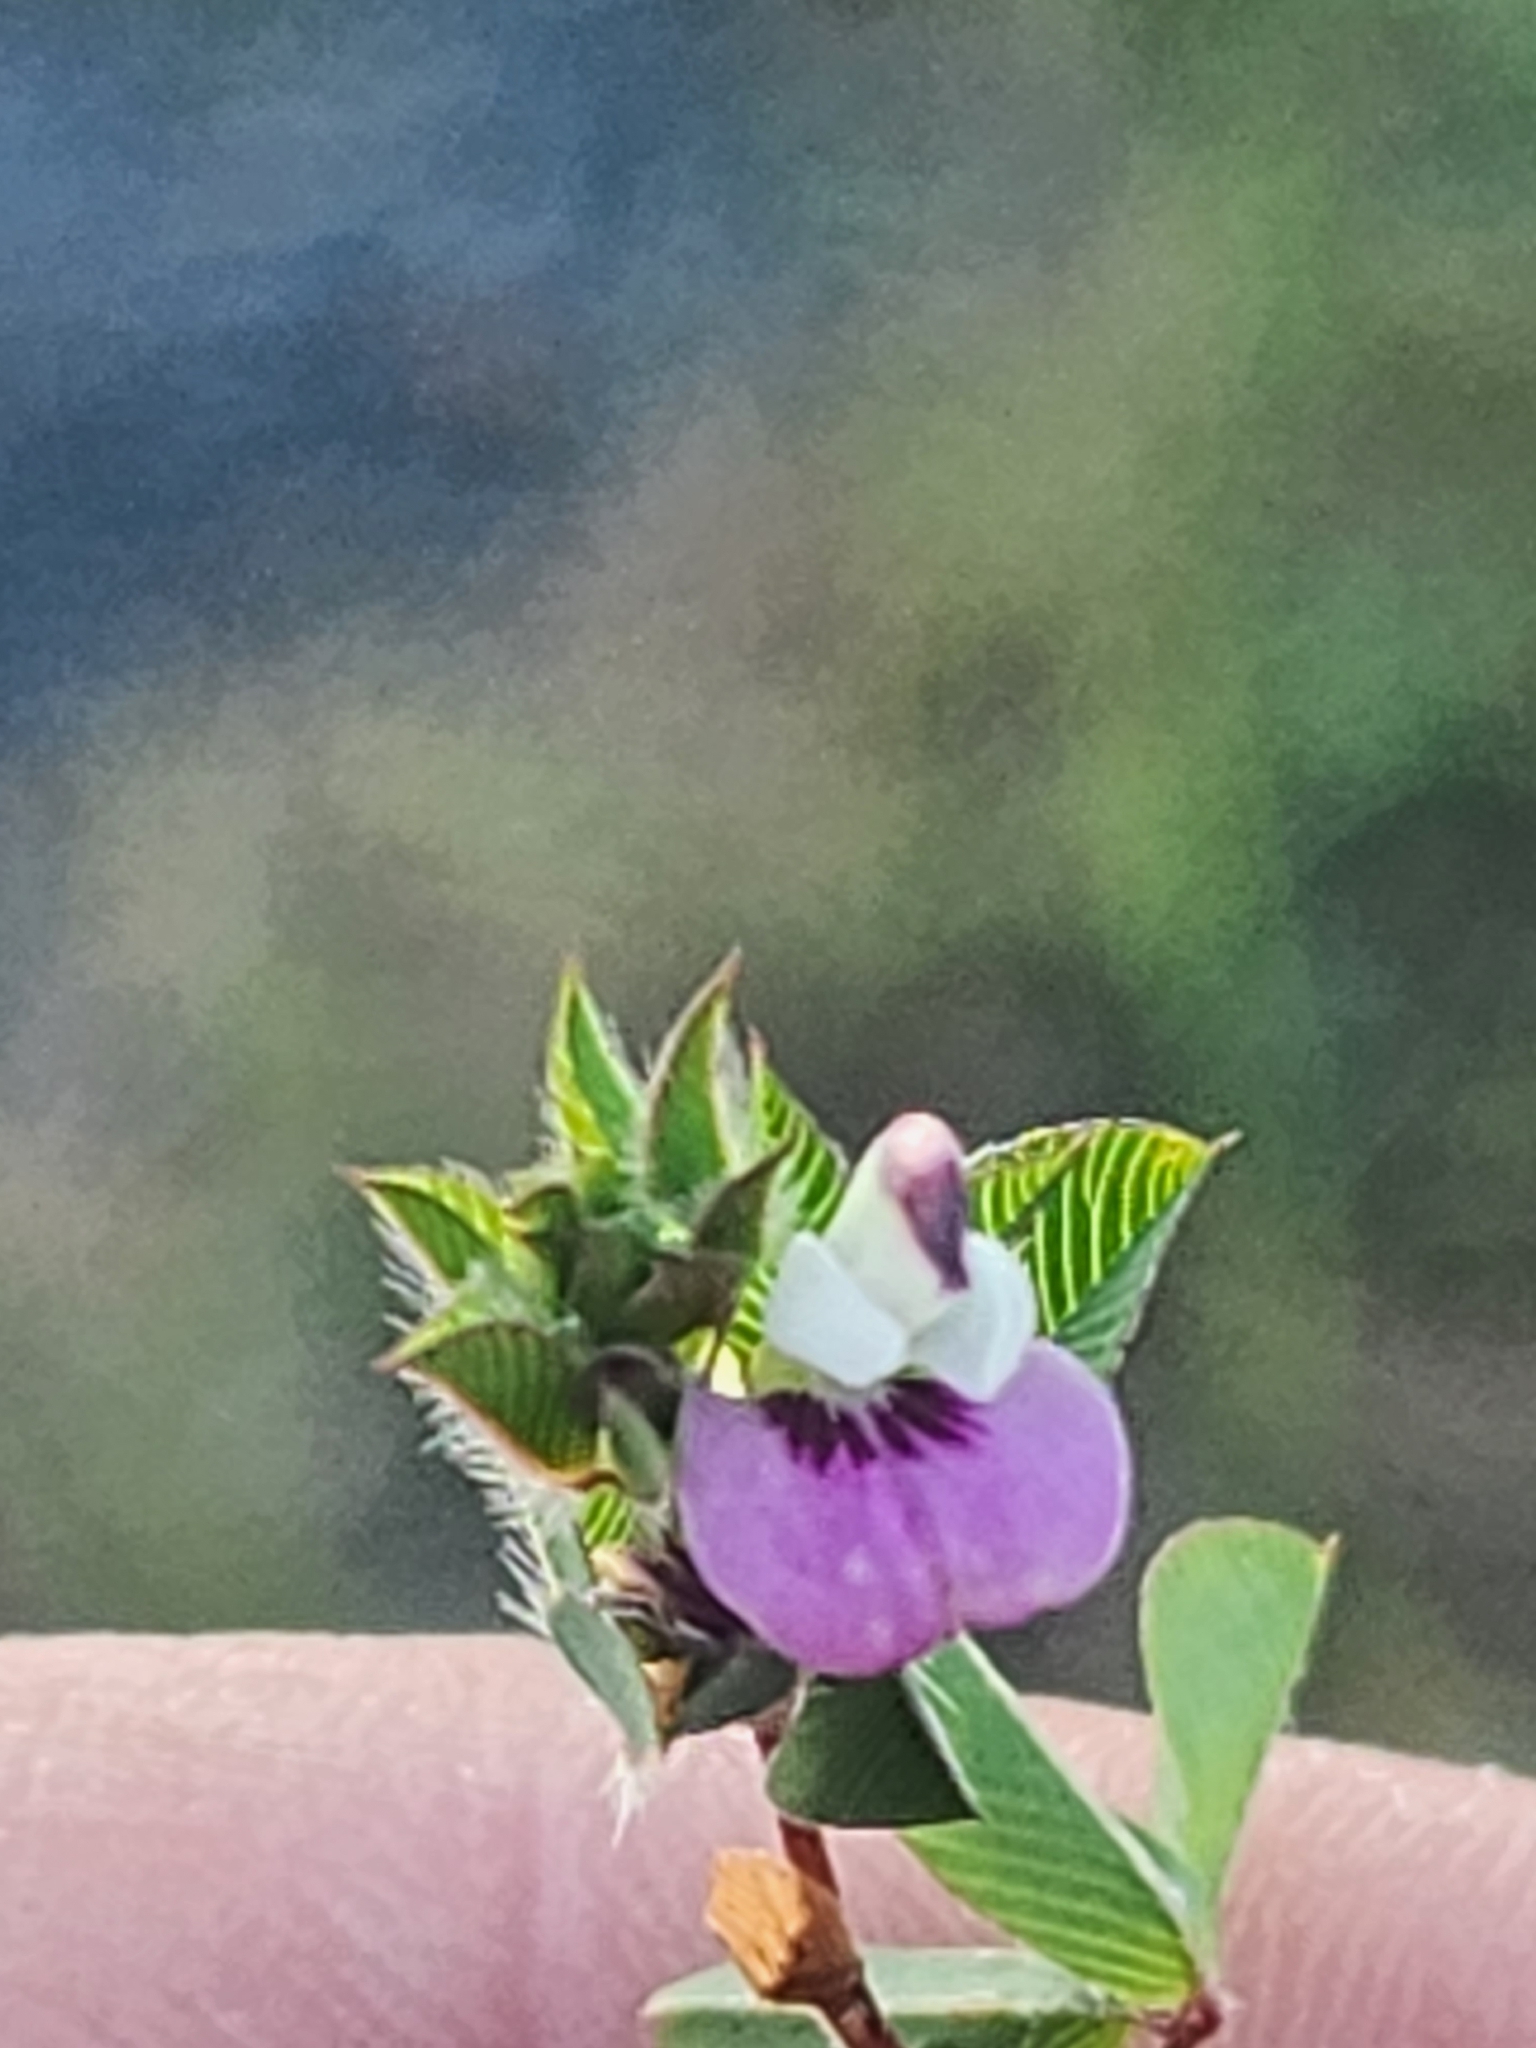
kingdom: Plantae
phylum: Tracheophyta
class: Magnoliopsida
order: Fabales
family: Fabaceae
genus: Kummerowia
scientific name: Kummerowia stipulacea
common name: Korean clover
